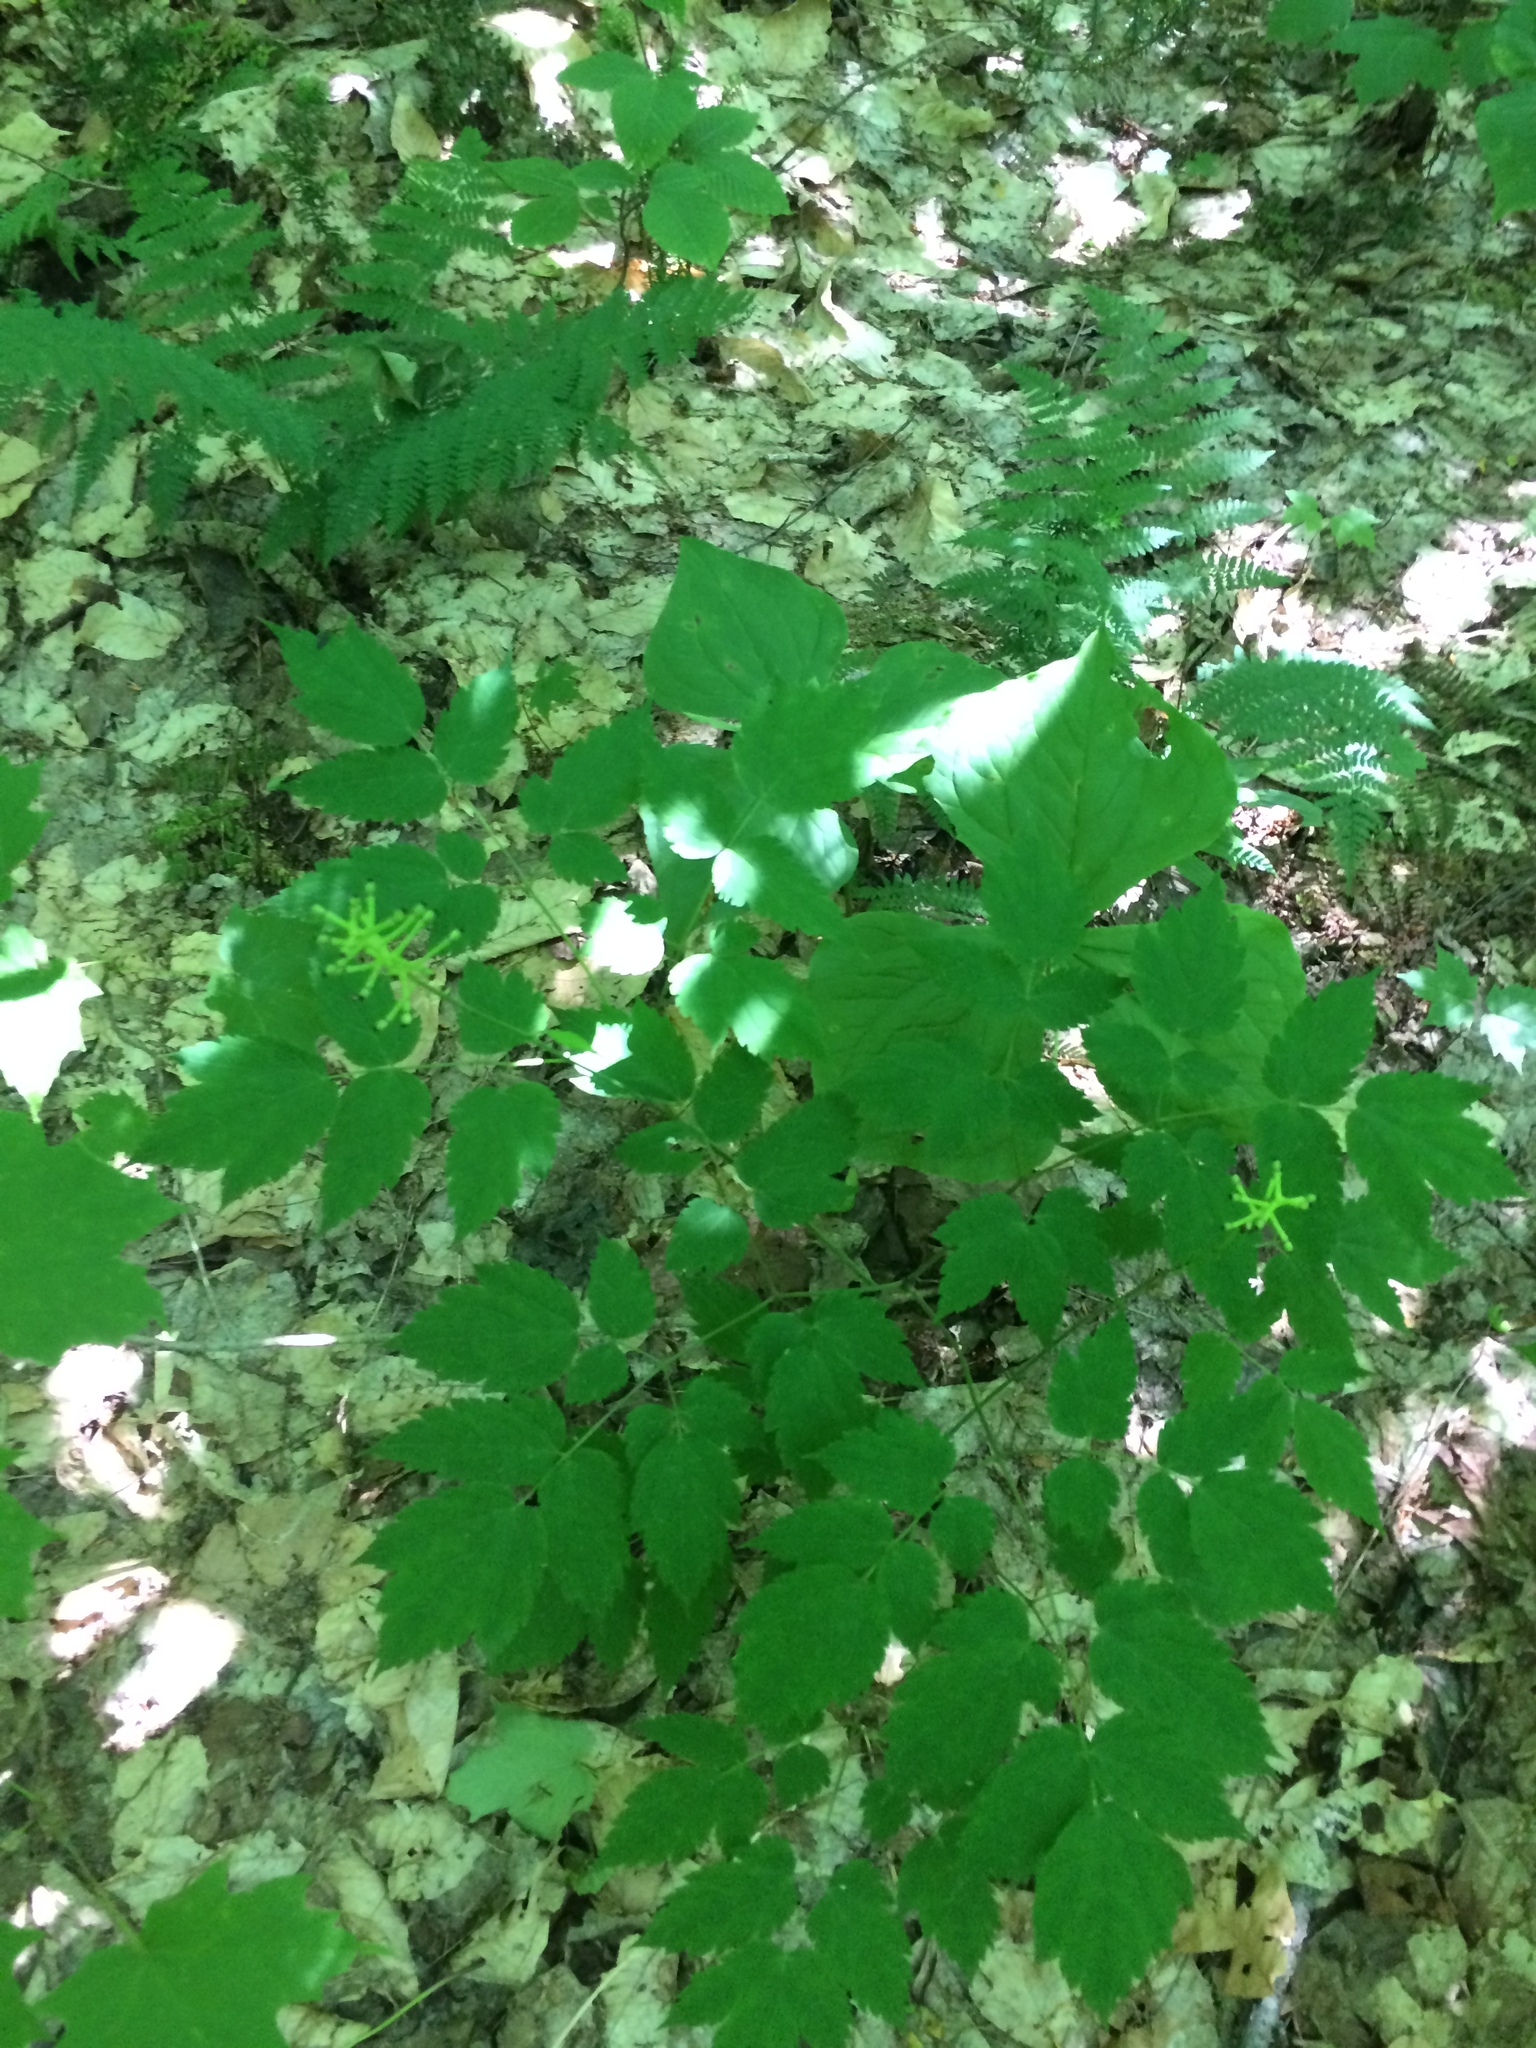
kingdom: Plantae
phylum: Tracheophyta
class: Magnoliopsida
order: Ranunculales
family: Ranunculaceae
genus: Actaea
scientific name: Actaea pachypoda
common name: Doll's-eyes
